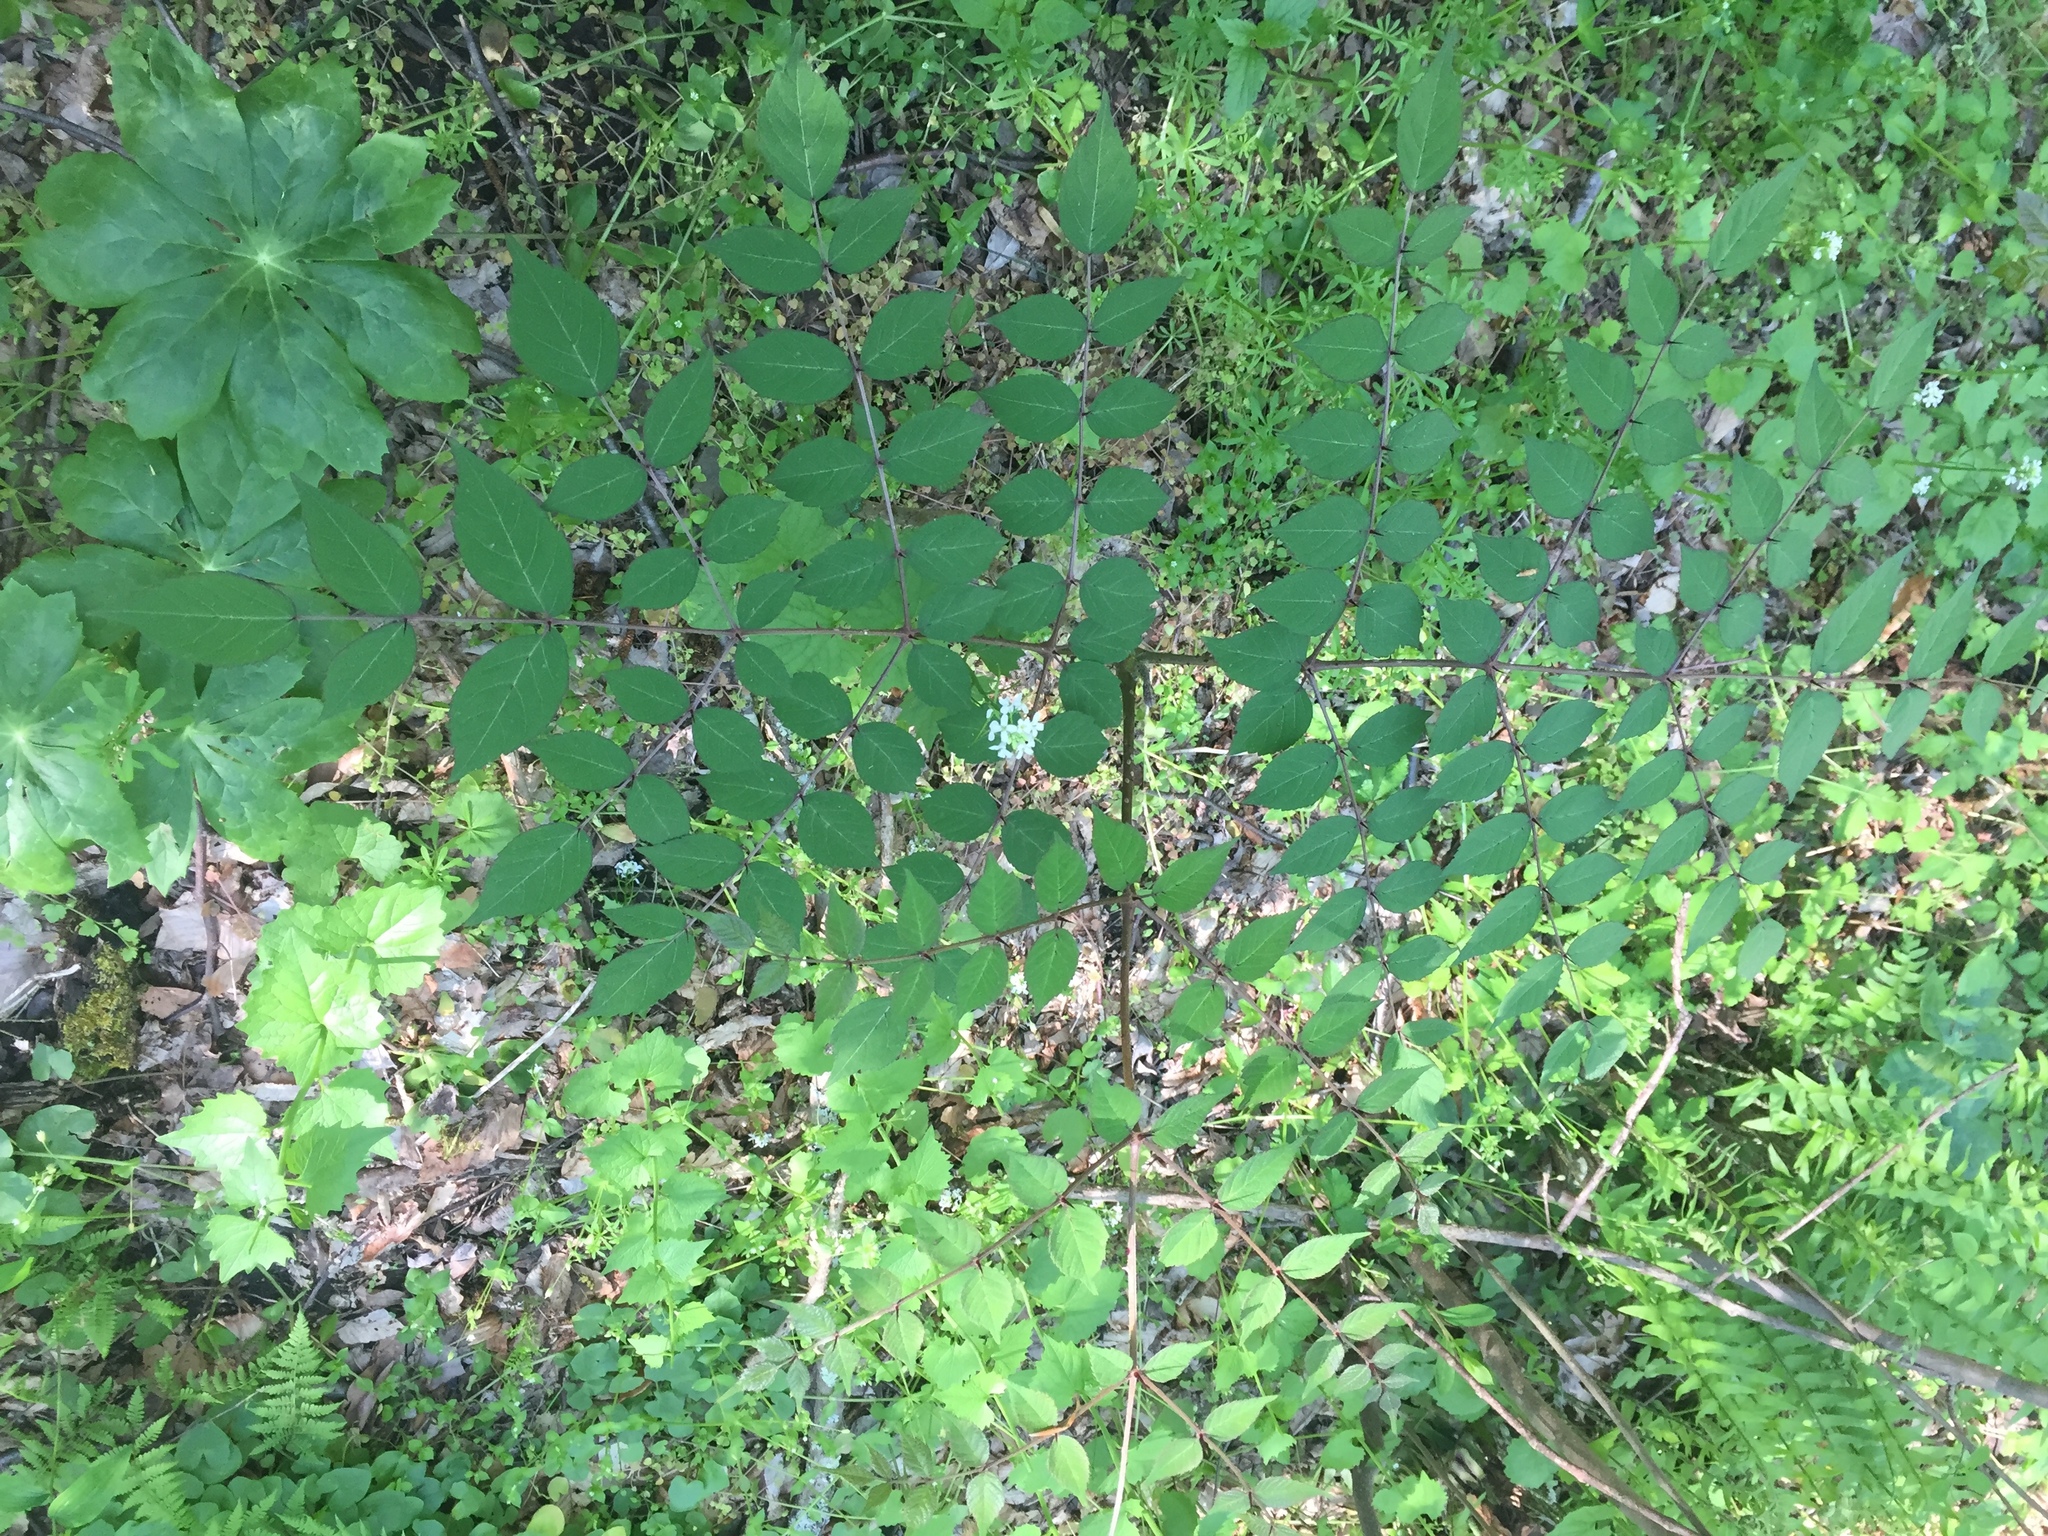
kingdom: Plantae
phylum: Tracheophyta
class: Magnoliopsida
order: Apiales
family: Araliaceae
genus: Aralia
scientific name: Aralia elata
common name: Japanese angelica-tree
